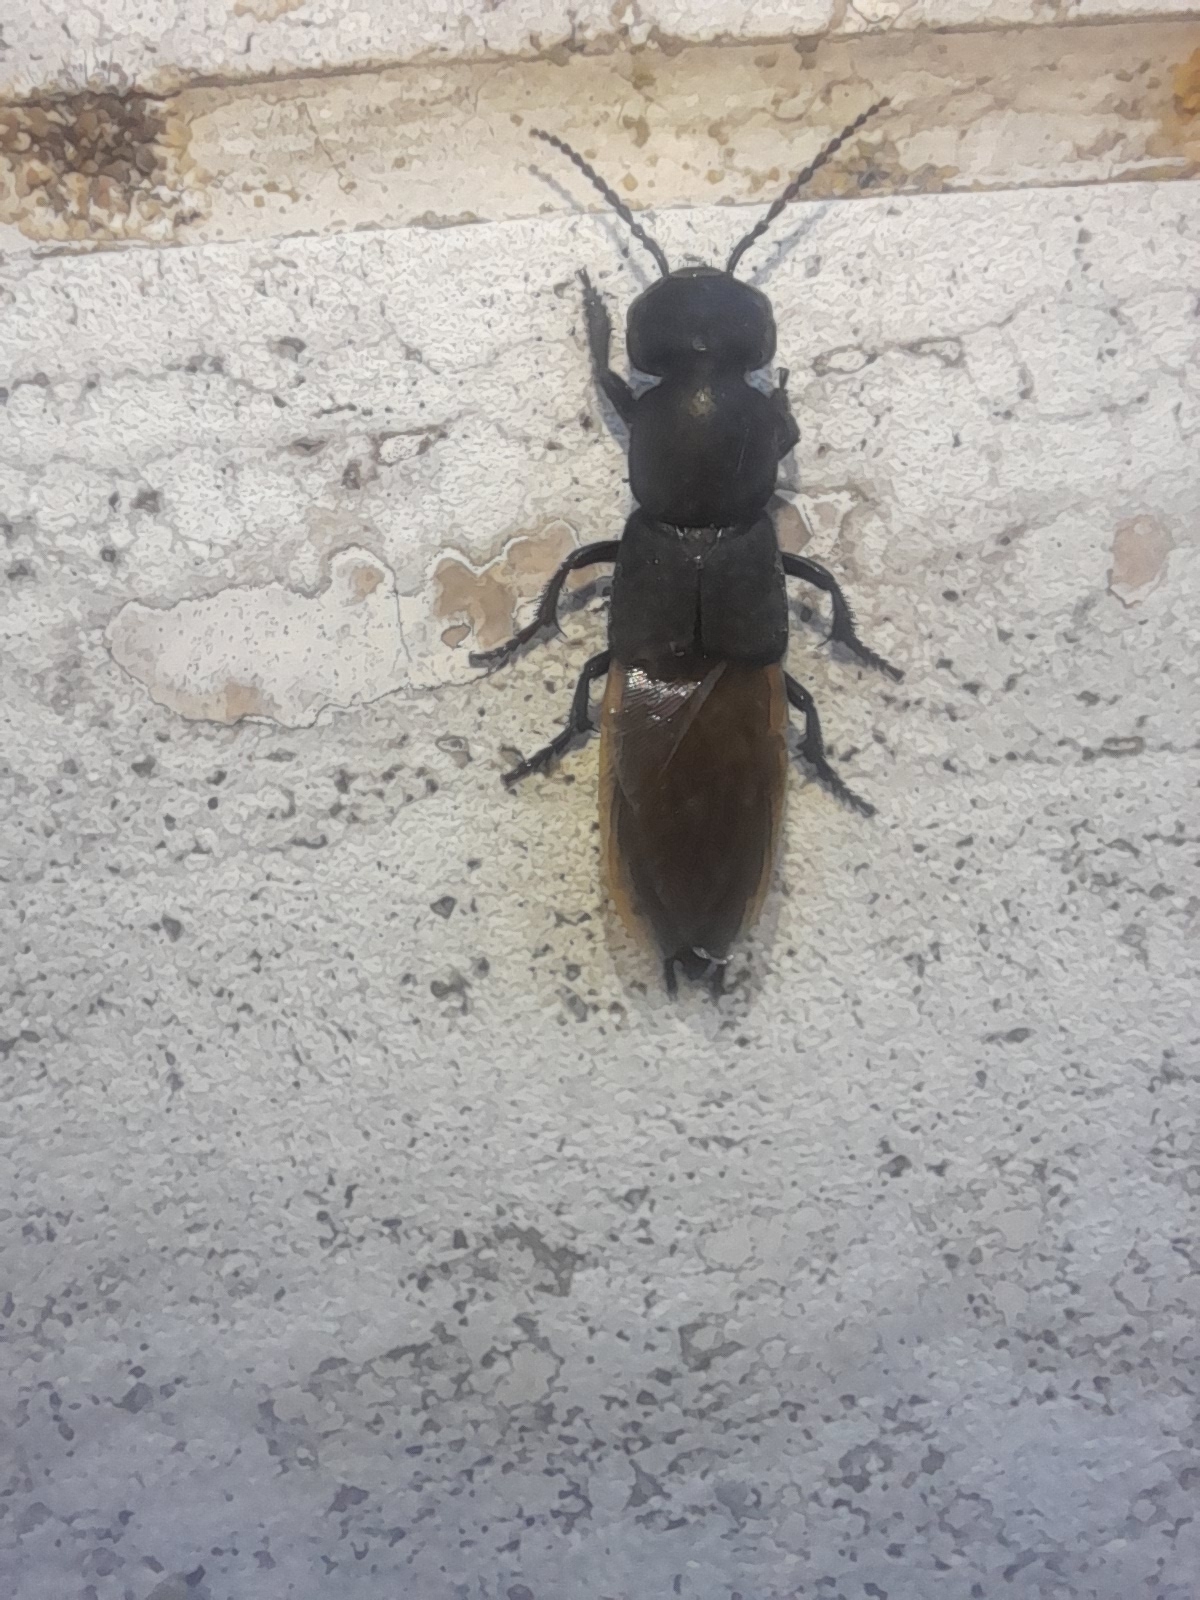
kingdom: Animalia
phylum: Arthropoda
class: Insecta
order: Coleoptera
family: Staphylinidae
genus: Ocypus
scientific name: Ocypus olens
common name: Devil's coach-horse
